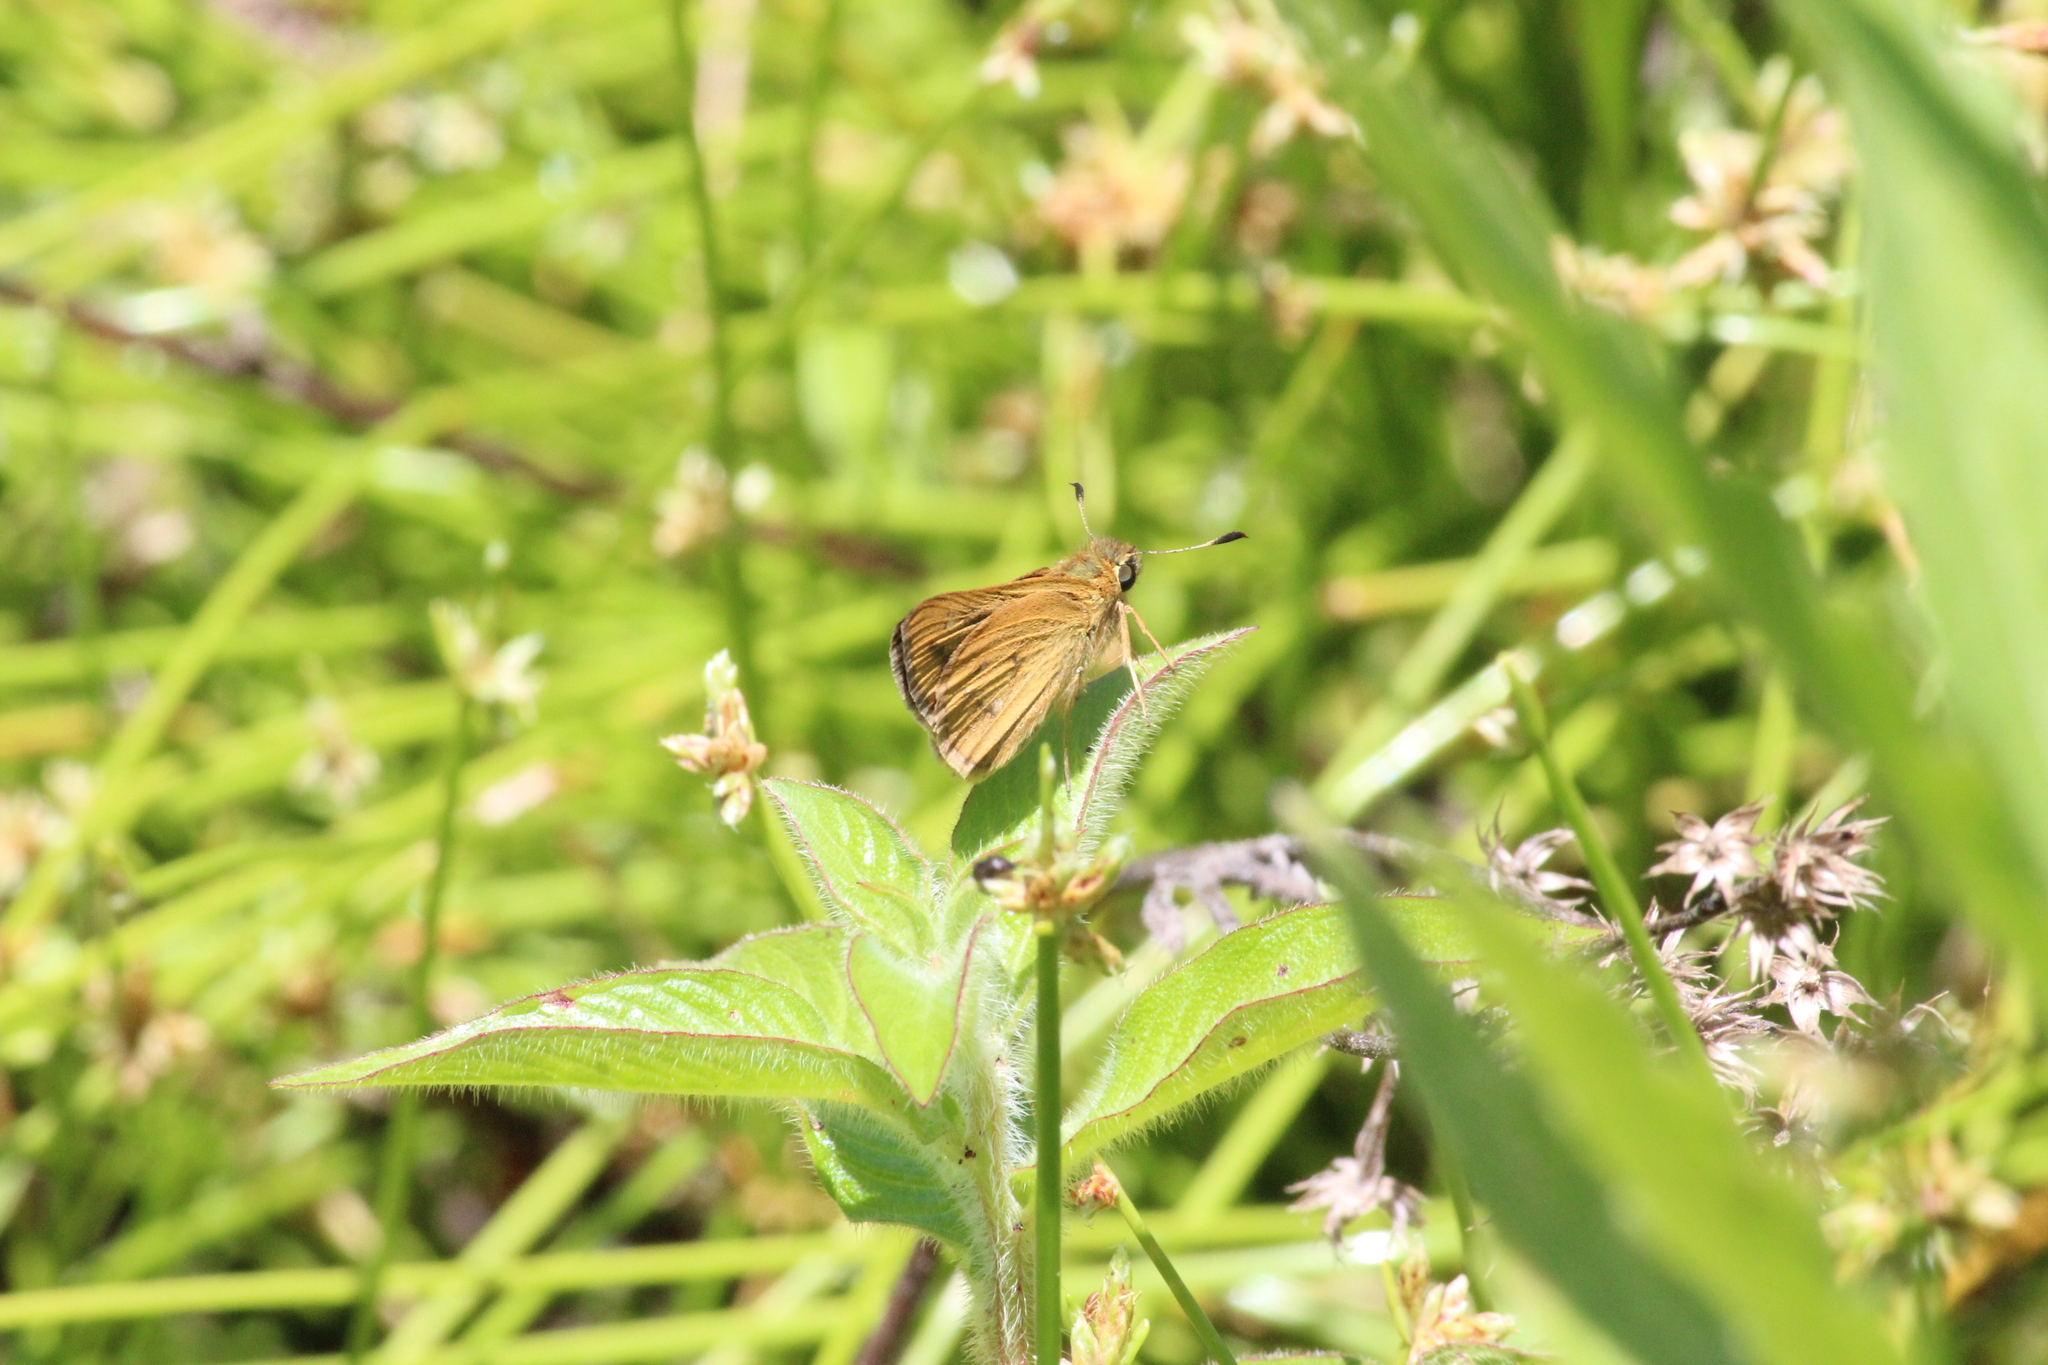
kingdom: Animalia
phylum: Arthropoda
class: Insecta
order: Lepidoptera
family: Hesperiidae
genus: Parnara
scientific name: Parnara naso
